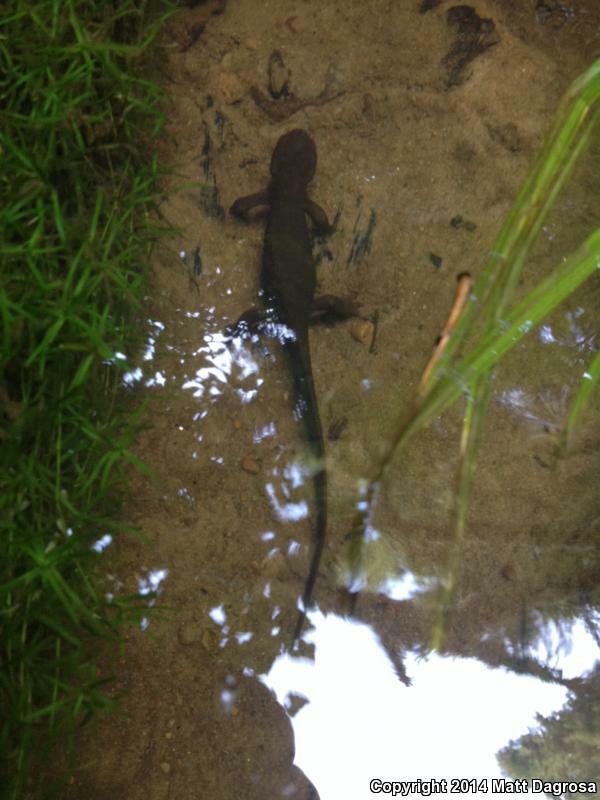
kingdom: Animalia
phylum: Chordata
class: Amphibia
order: Caudata
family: Salamandridae
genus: Taricha
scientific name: Taricha granulosa
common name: Roughskin newt
